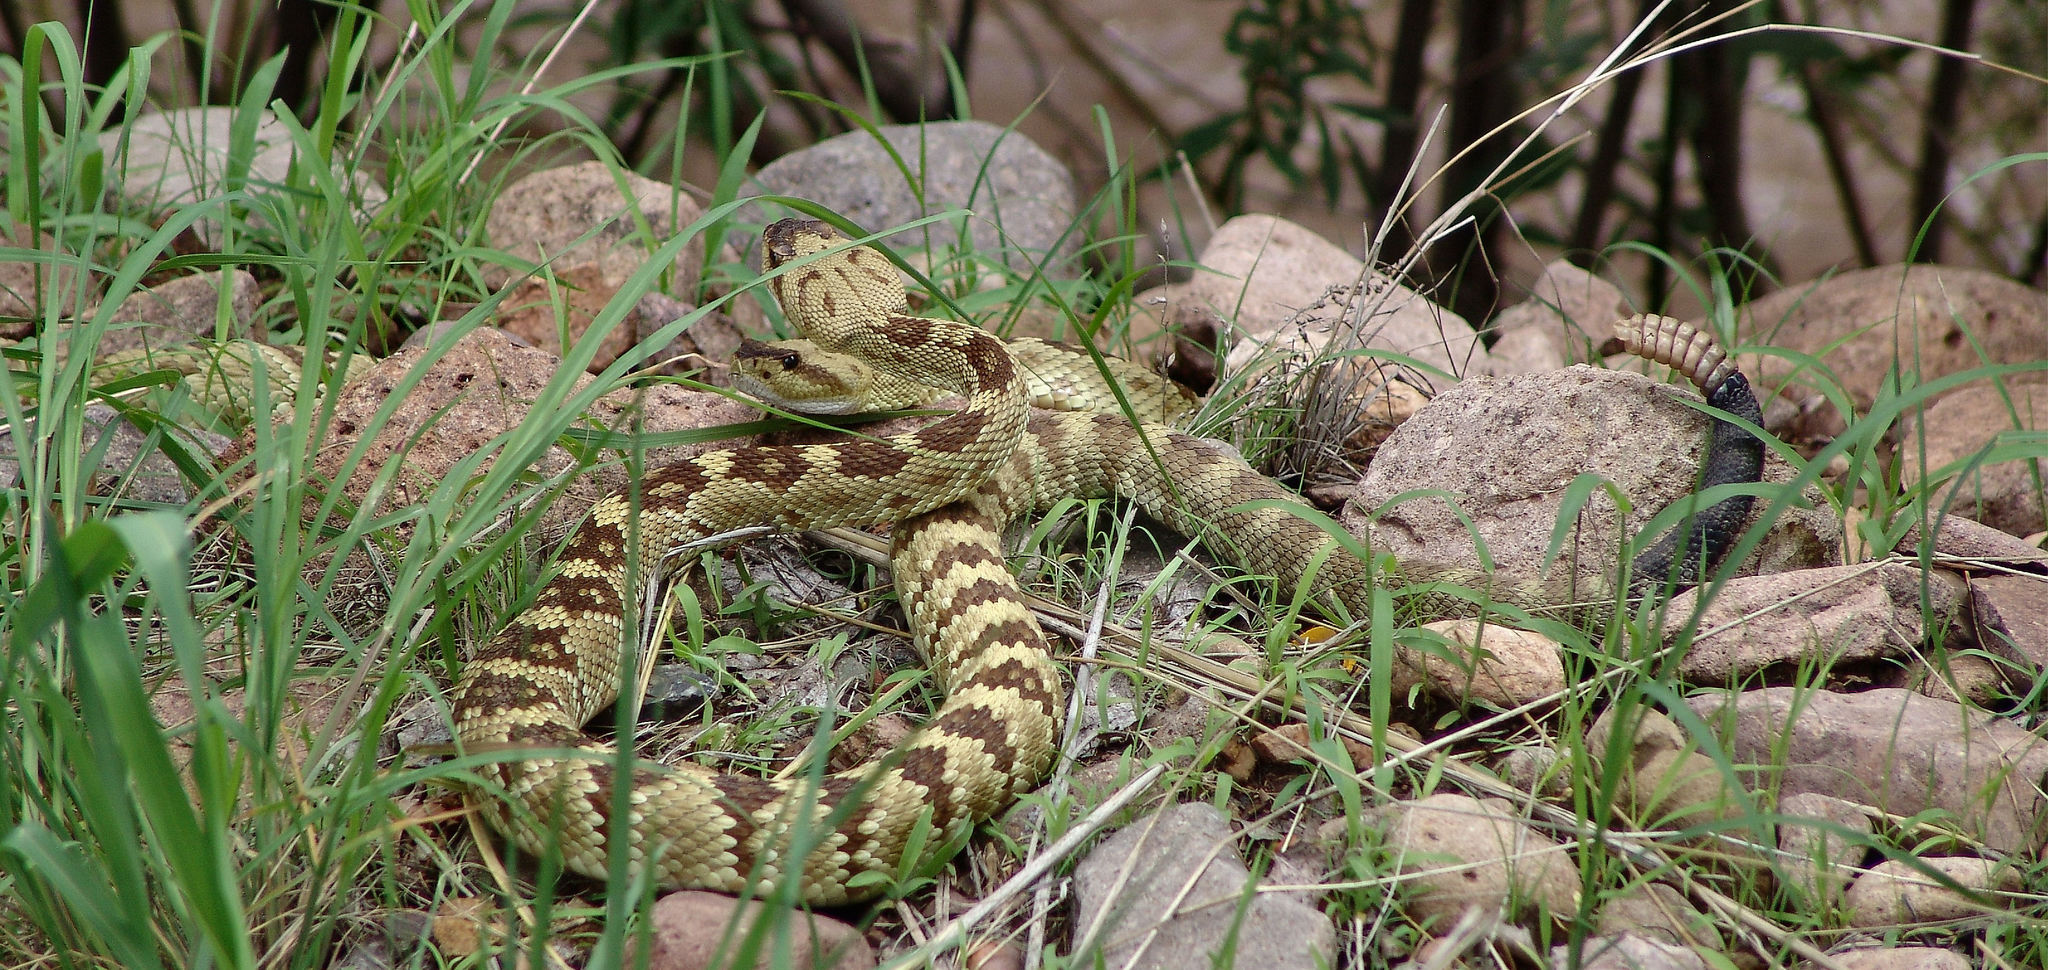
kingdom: Animalia
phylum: Chordata
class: Squamata
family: Viperidae
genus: Crotalus
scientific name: Crotalus molossus
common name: Black tailed rattlesnake
